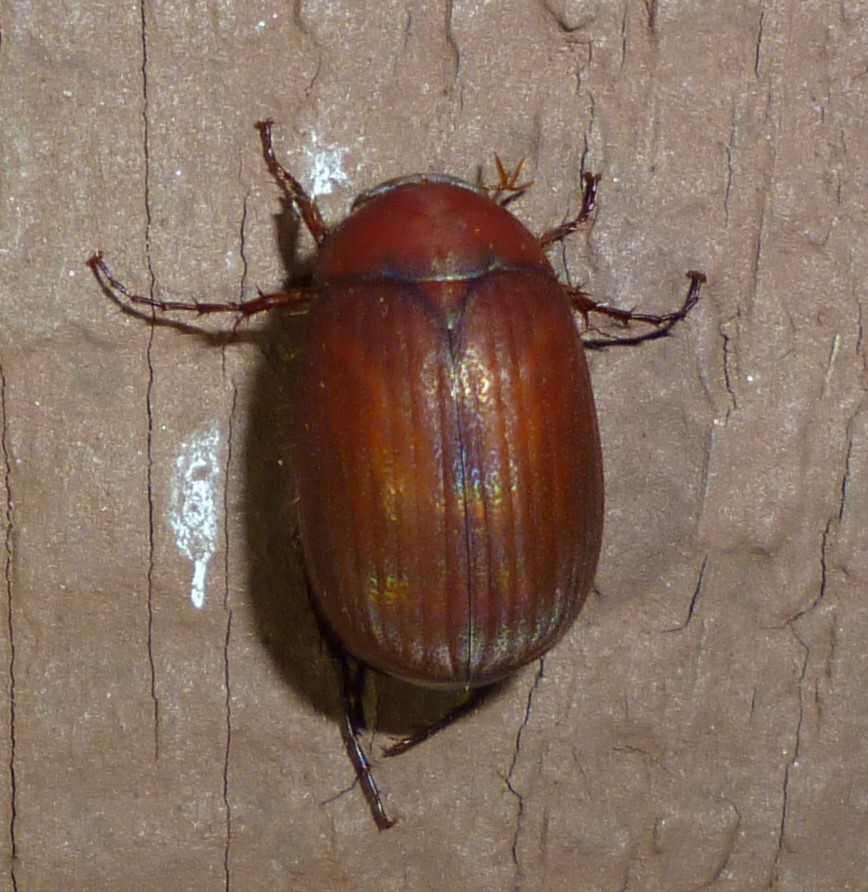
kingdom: Animalia
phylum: Arthropoda
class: Insecta
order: Coleoptera
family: Scarabaeidae
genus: Maladera
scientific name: Maladera formosae
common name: Asiatic garden beetle
